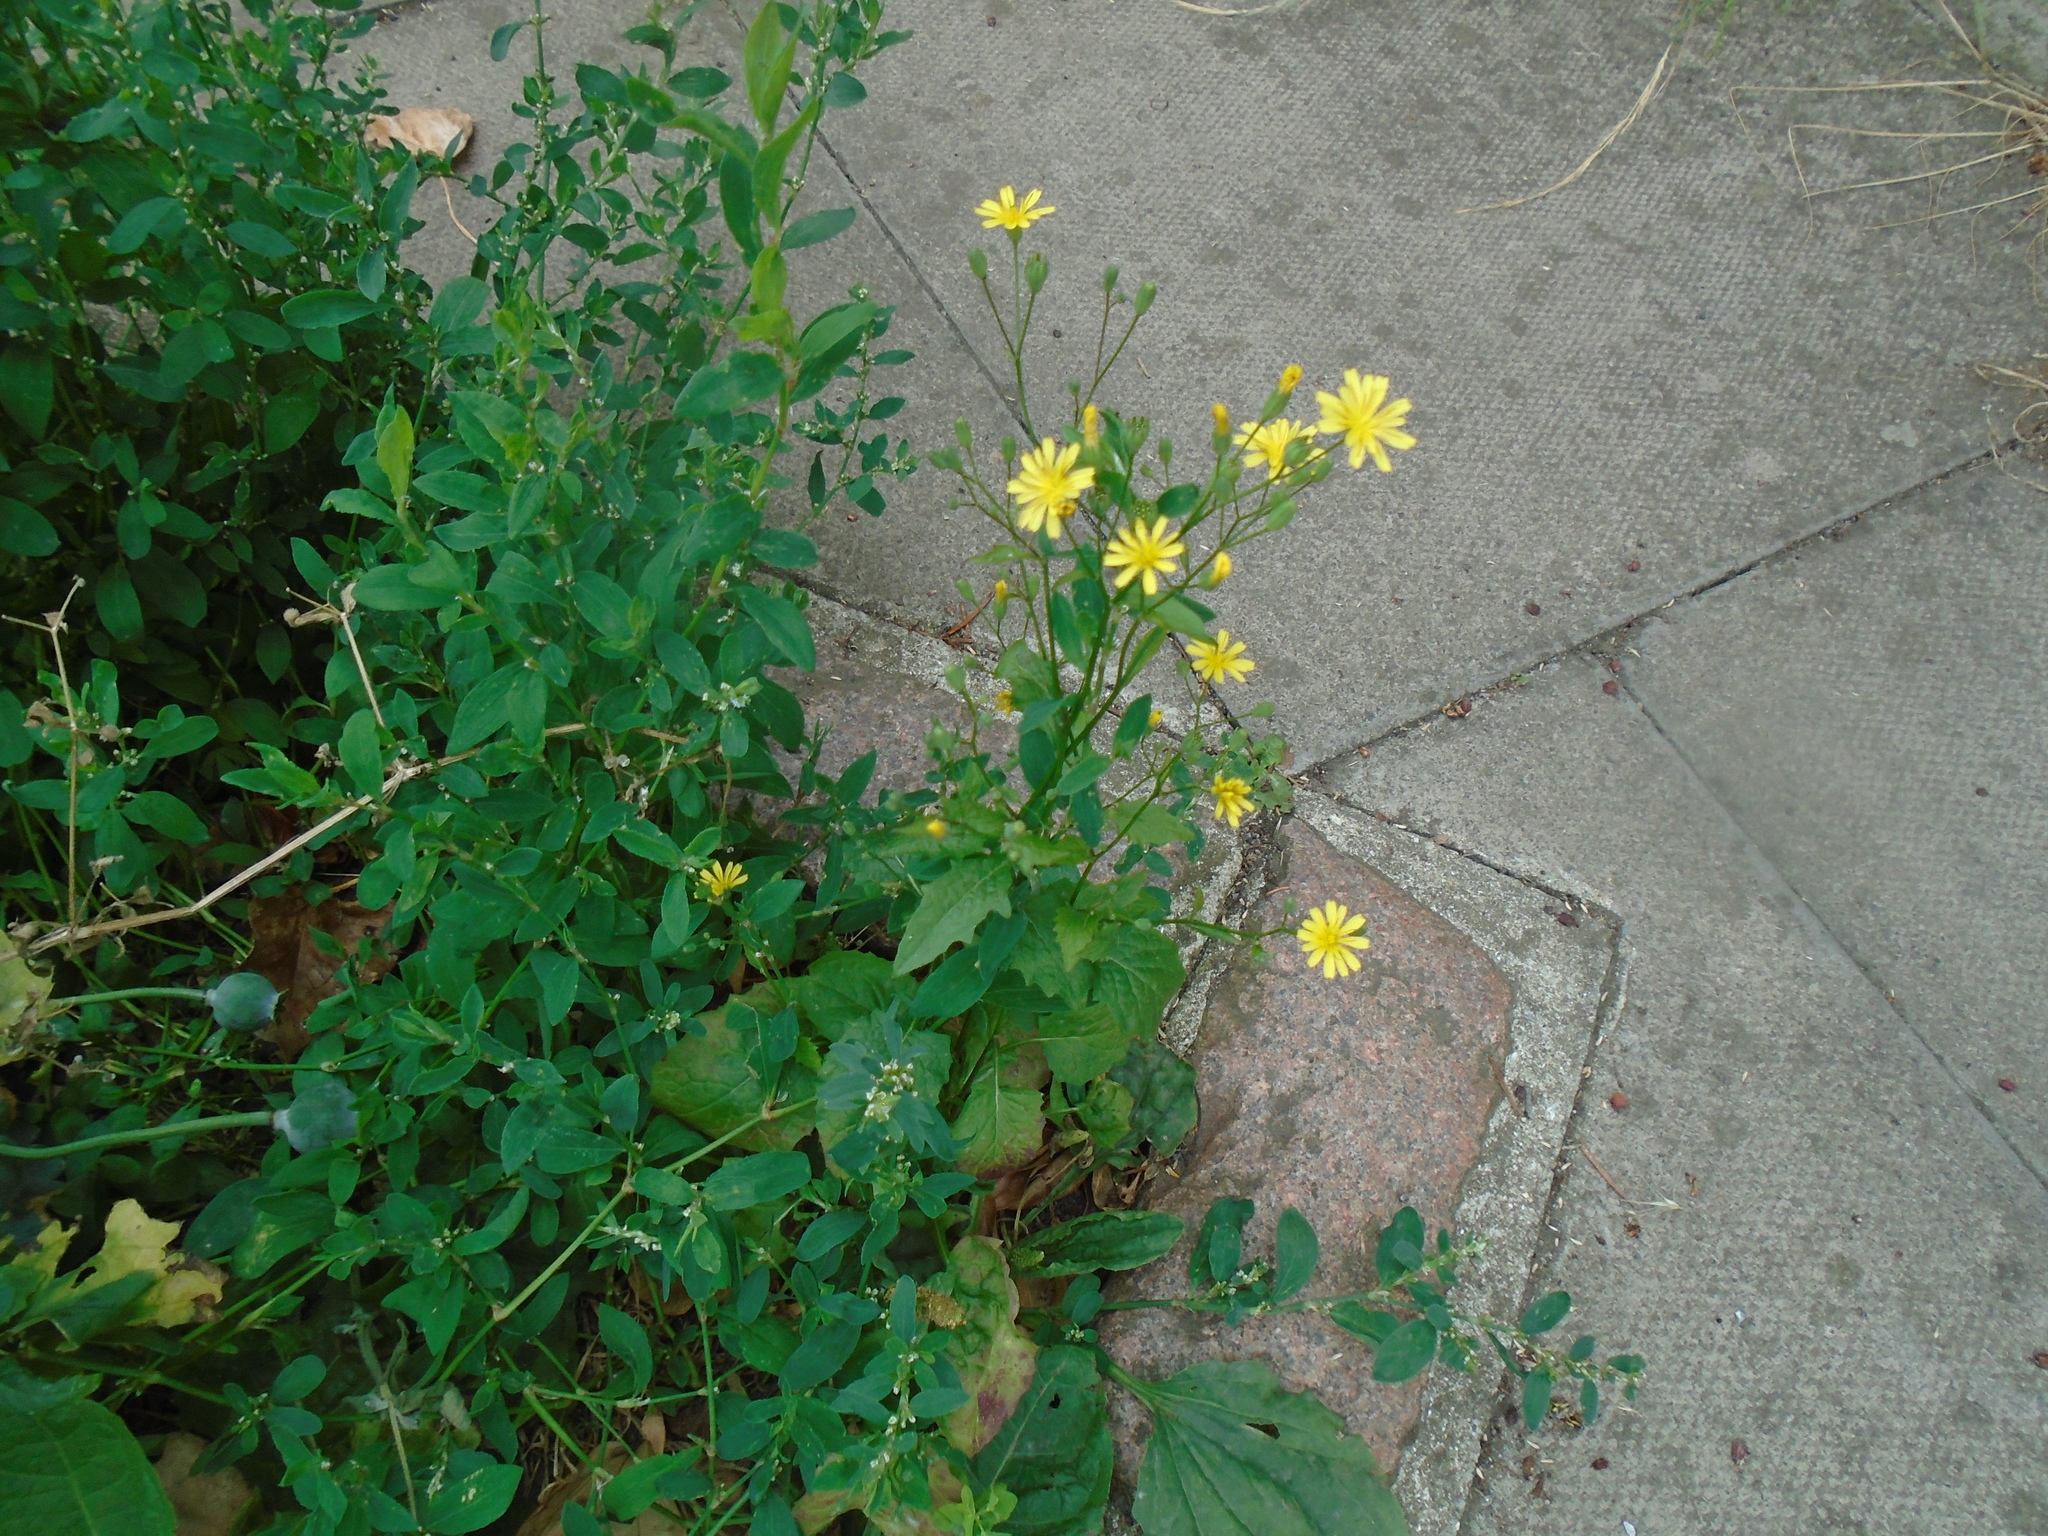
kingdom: Plantae
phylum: Tracheophyta
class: Magnoliopsida
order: Asterales
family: Asteraceae
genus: Lapsana
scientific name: Lapsana communis
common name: Nipplewort
